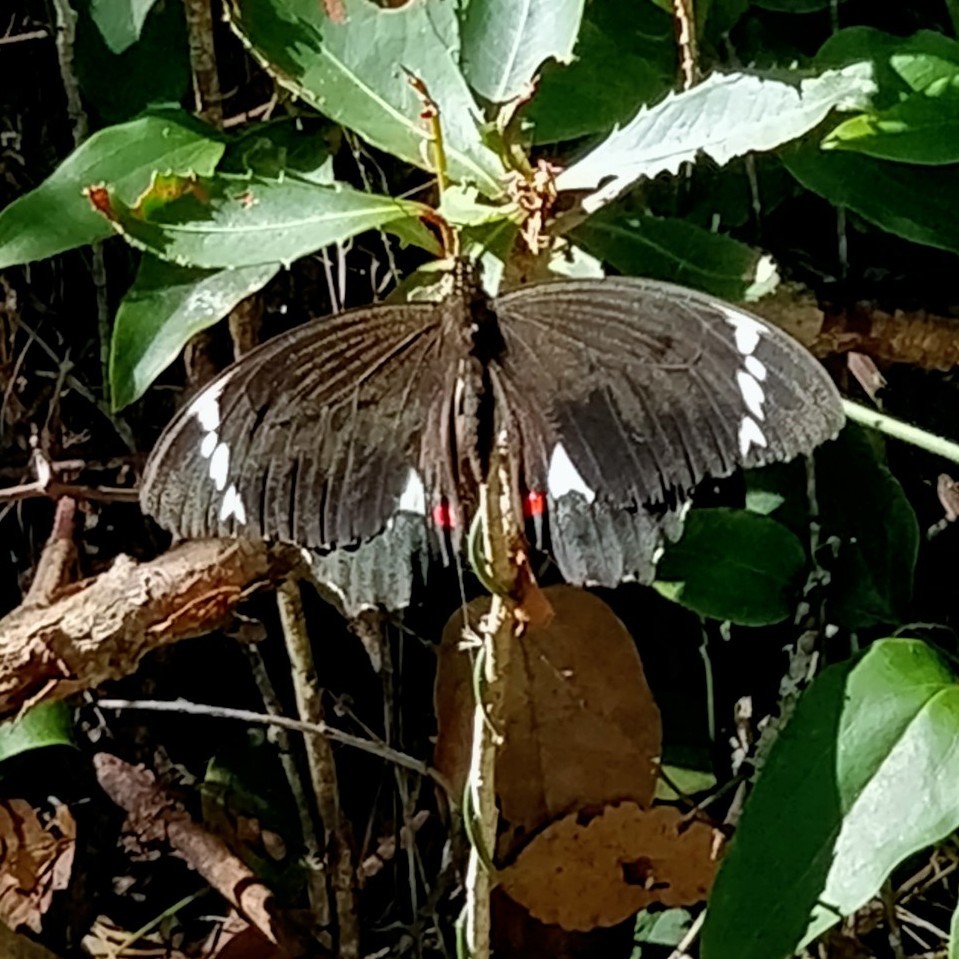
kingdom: Animalia
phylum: Arthropoda
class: Insecta
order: Lepidoptera
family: Papilionidae
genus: Papilio
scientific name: Papilio aegeus
